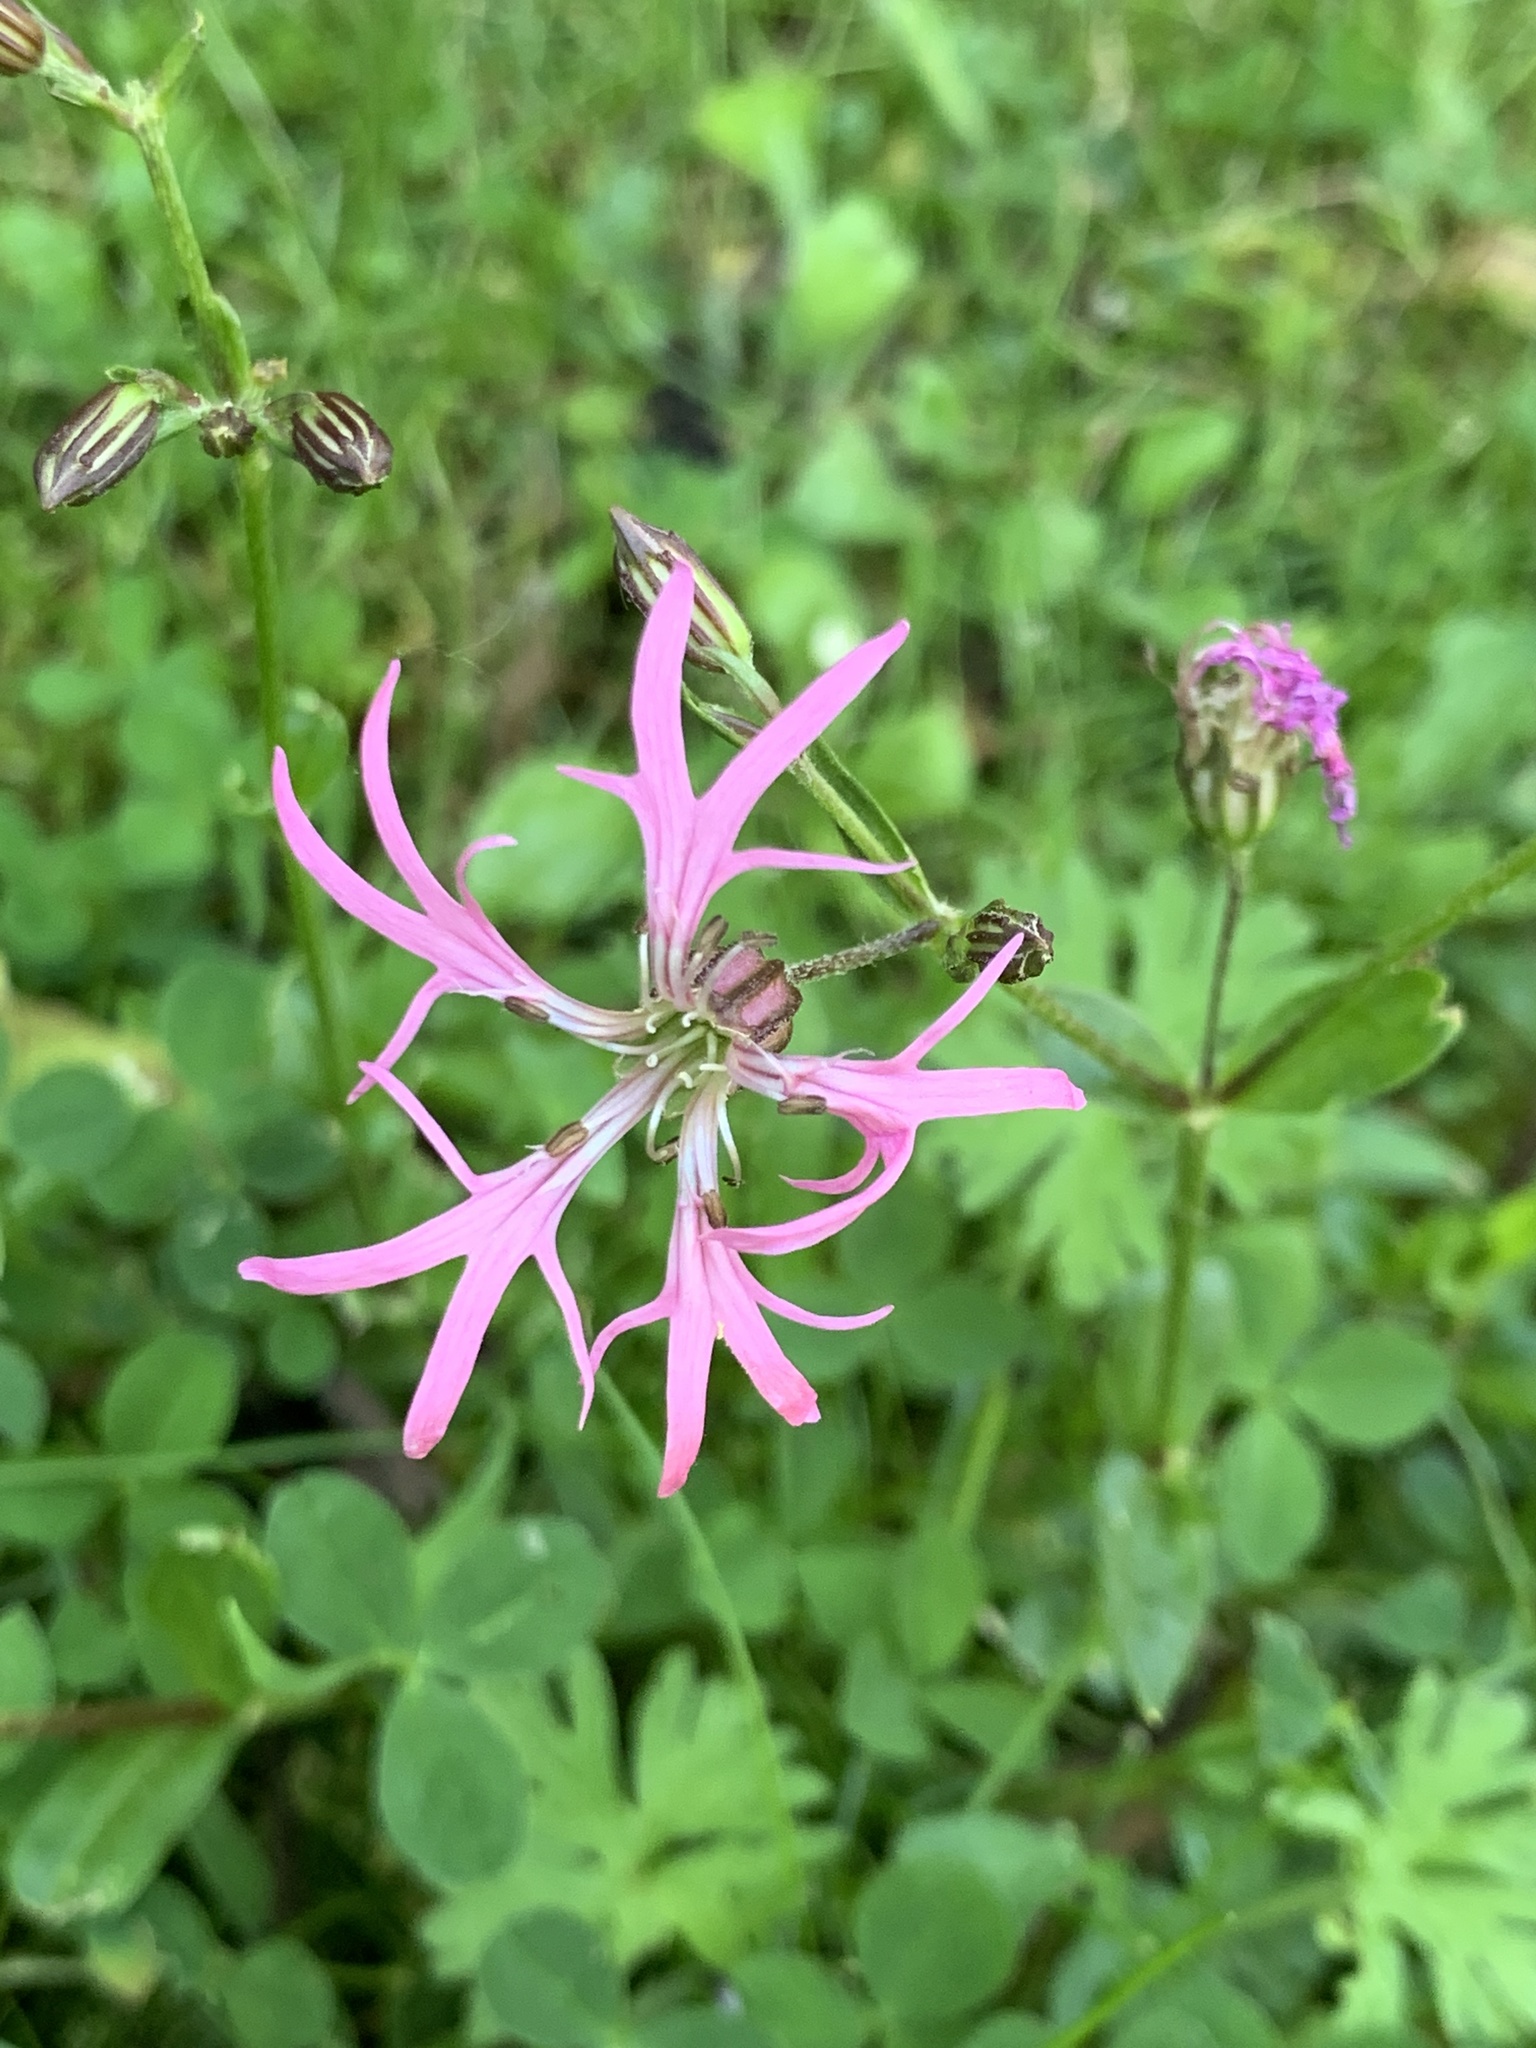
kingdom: Plantae
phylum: Tracheophyta
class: Magnoliopsida
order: Caryophyllales
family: Caryophyllaceae
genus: Silene
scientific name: Silene flos-cuculi
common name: Ragged-robin
